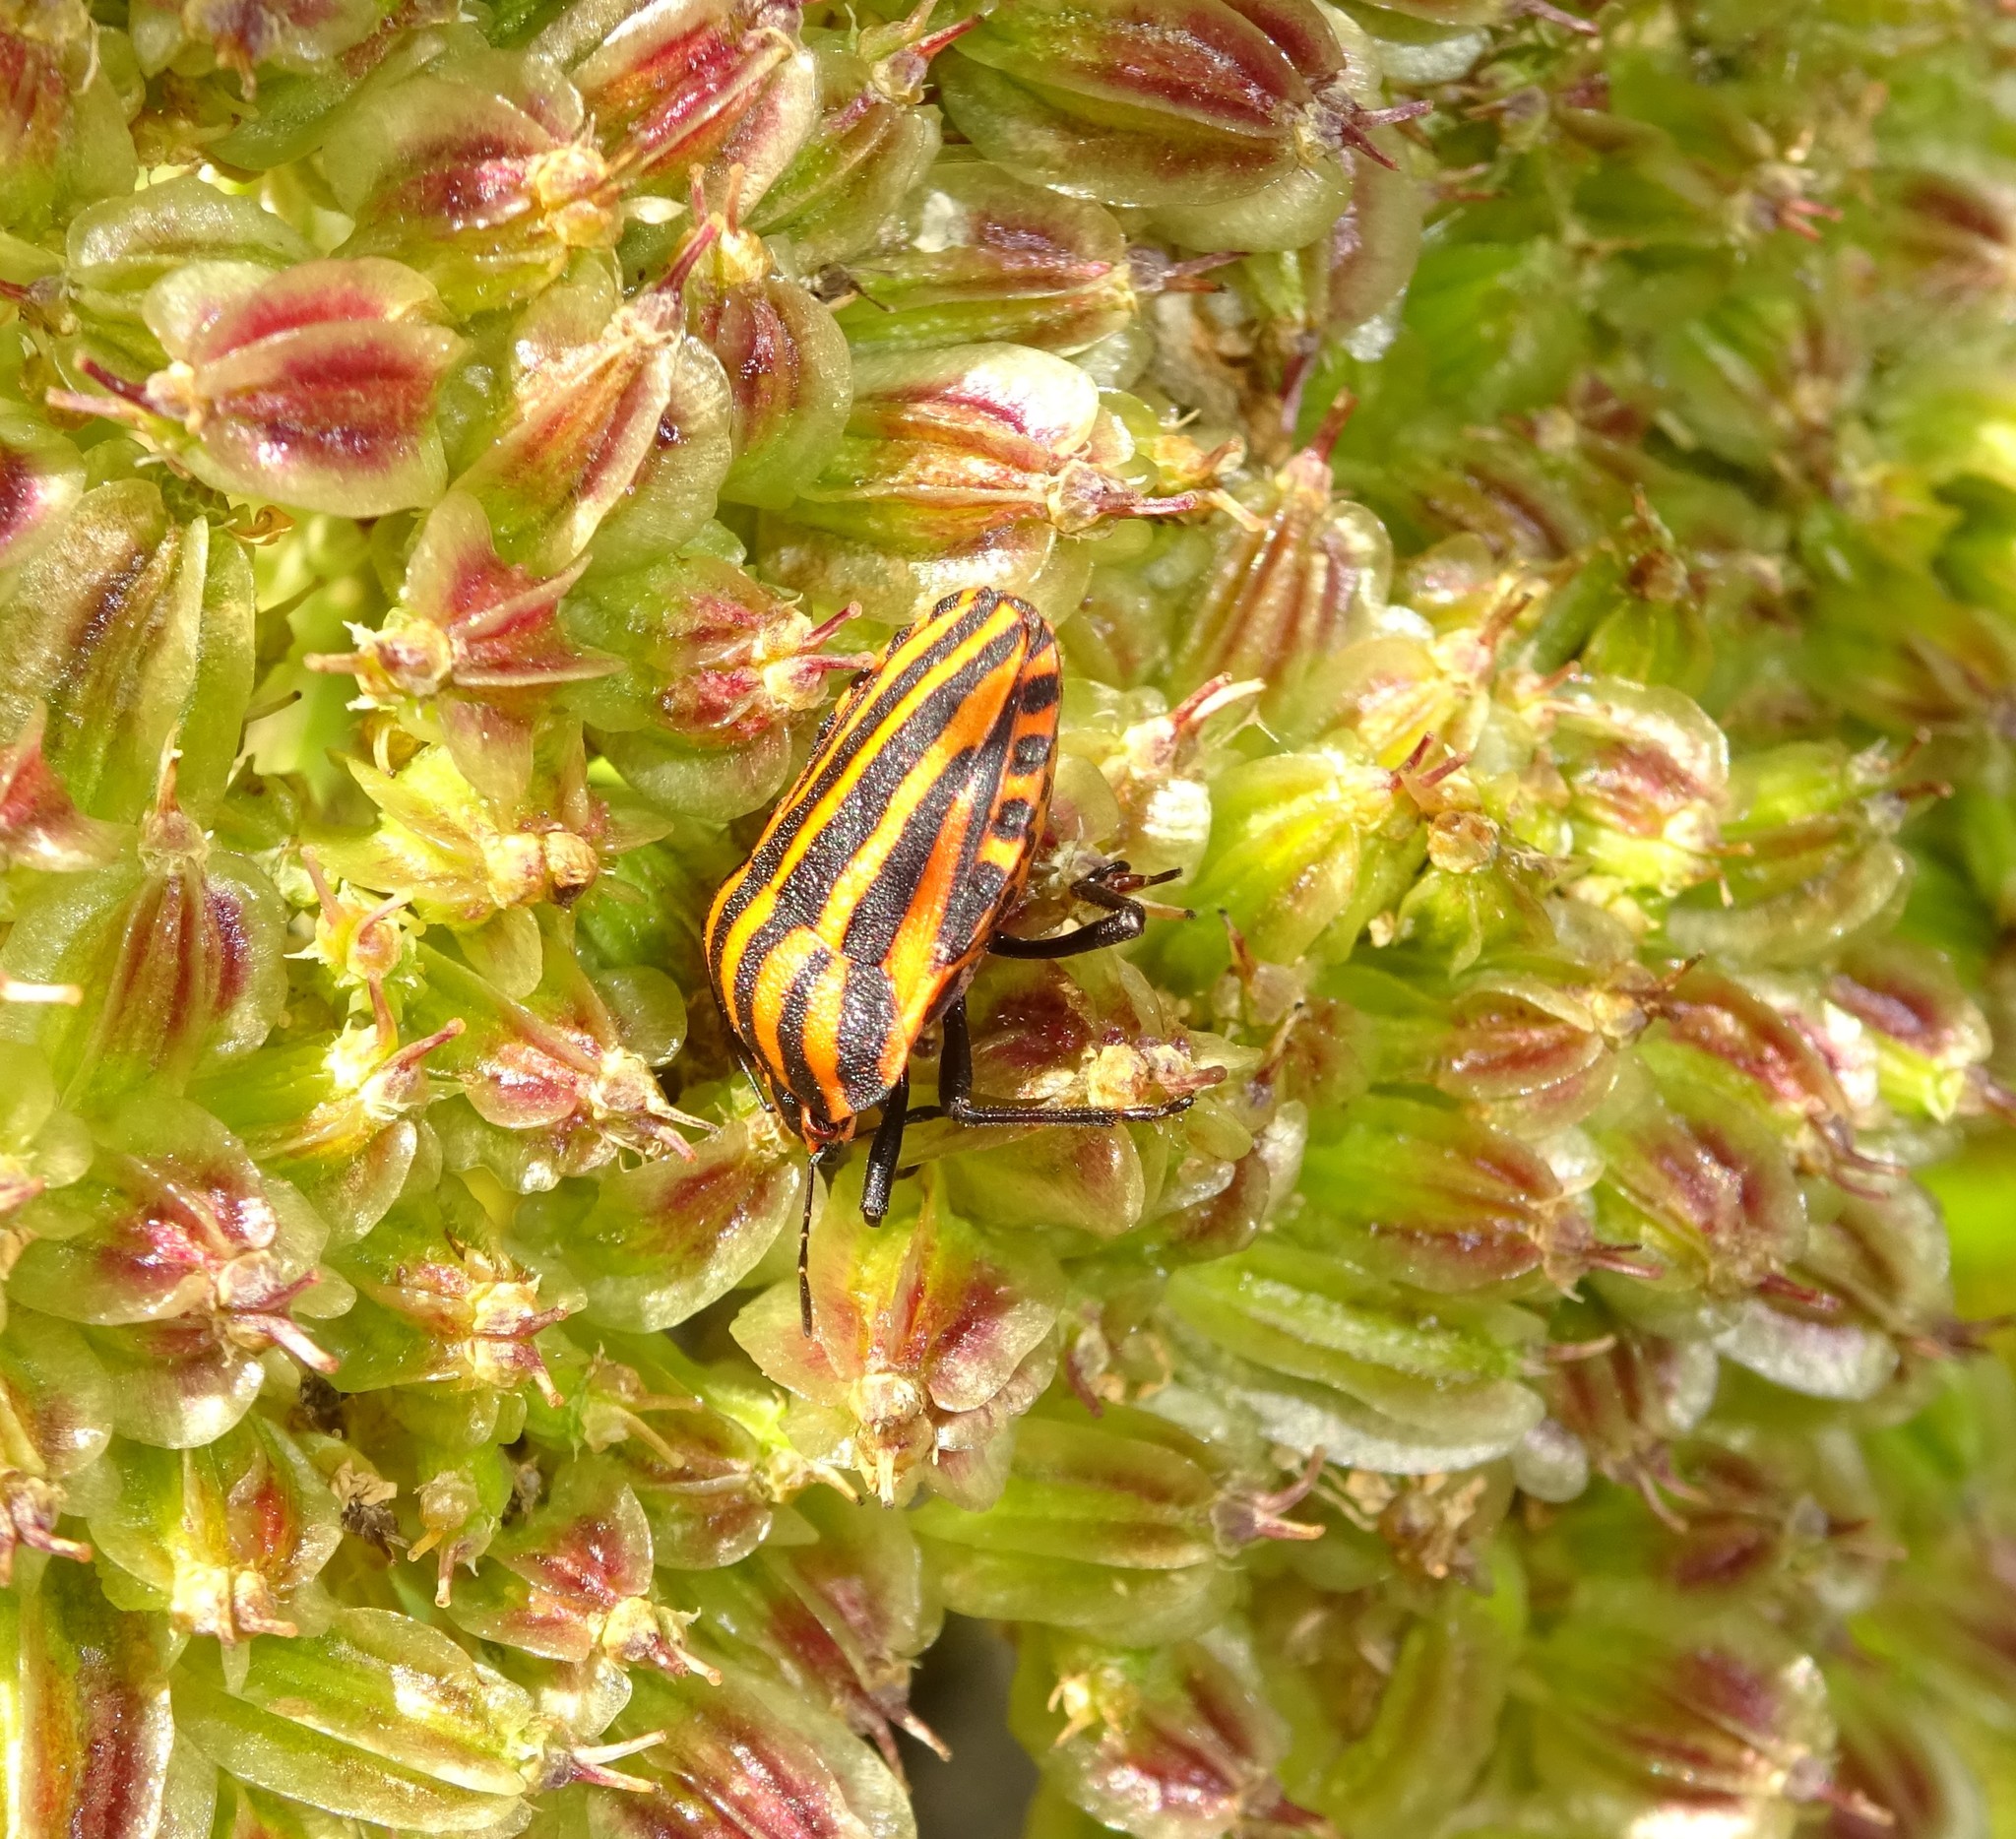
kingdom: Animalia
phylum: Arthropoda
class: Insecta
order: Hemiptera
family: Pentatomidae
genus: Graphosoma
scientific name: Graphosoma italicum
